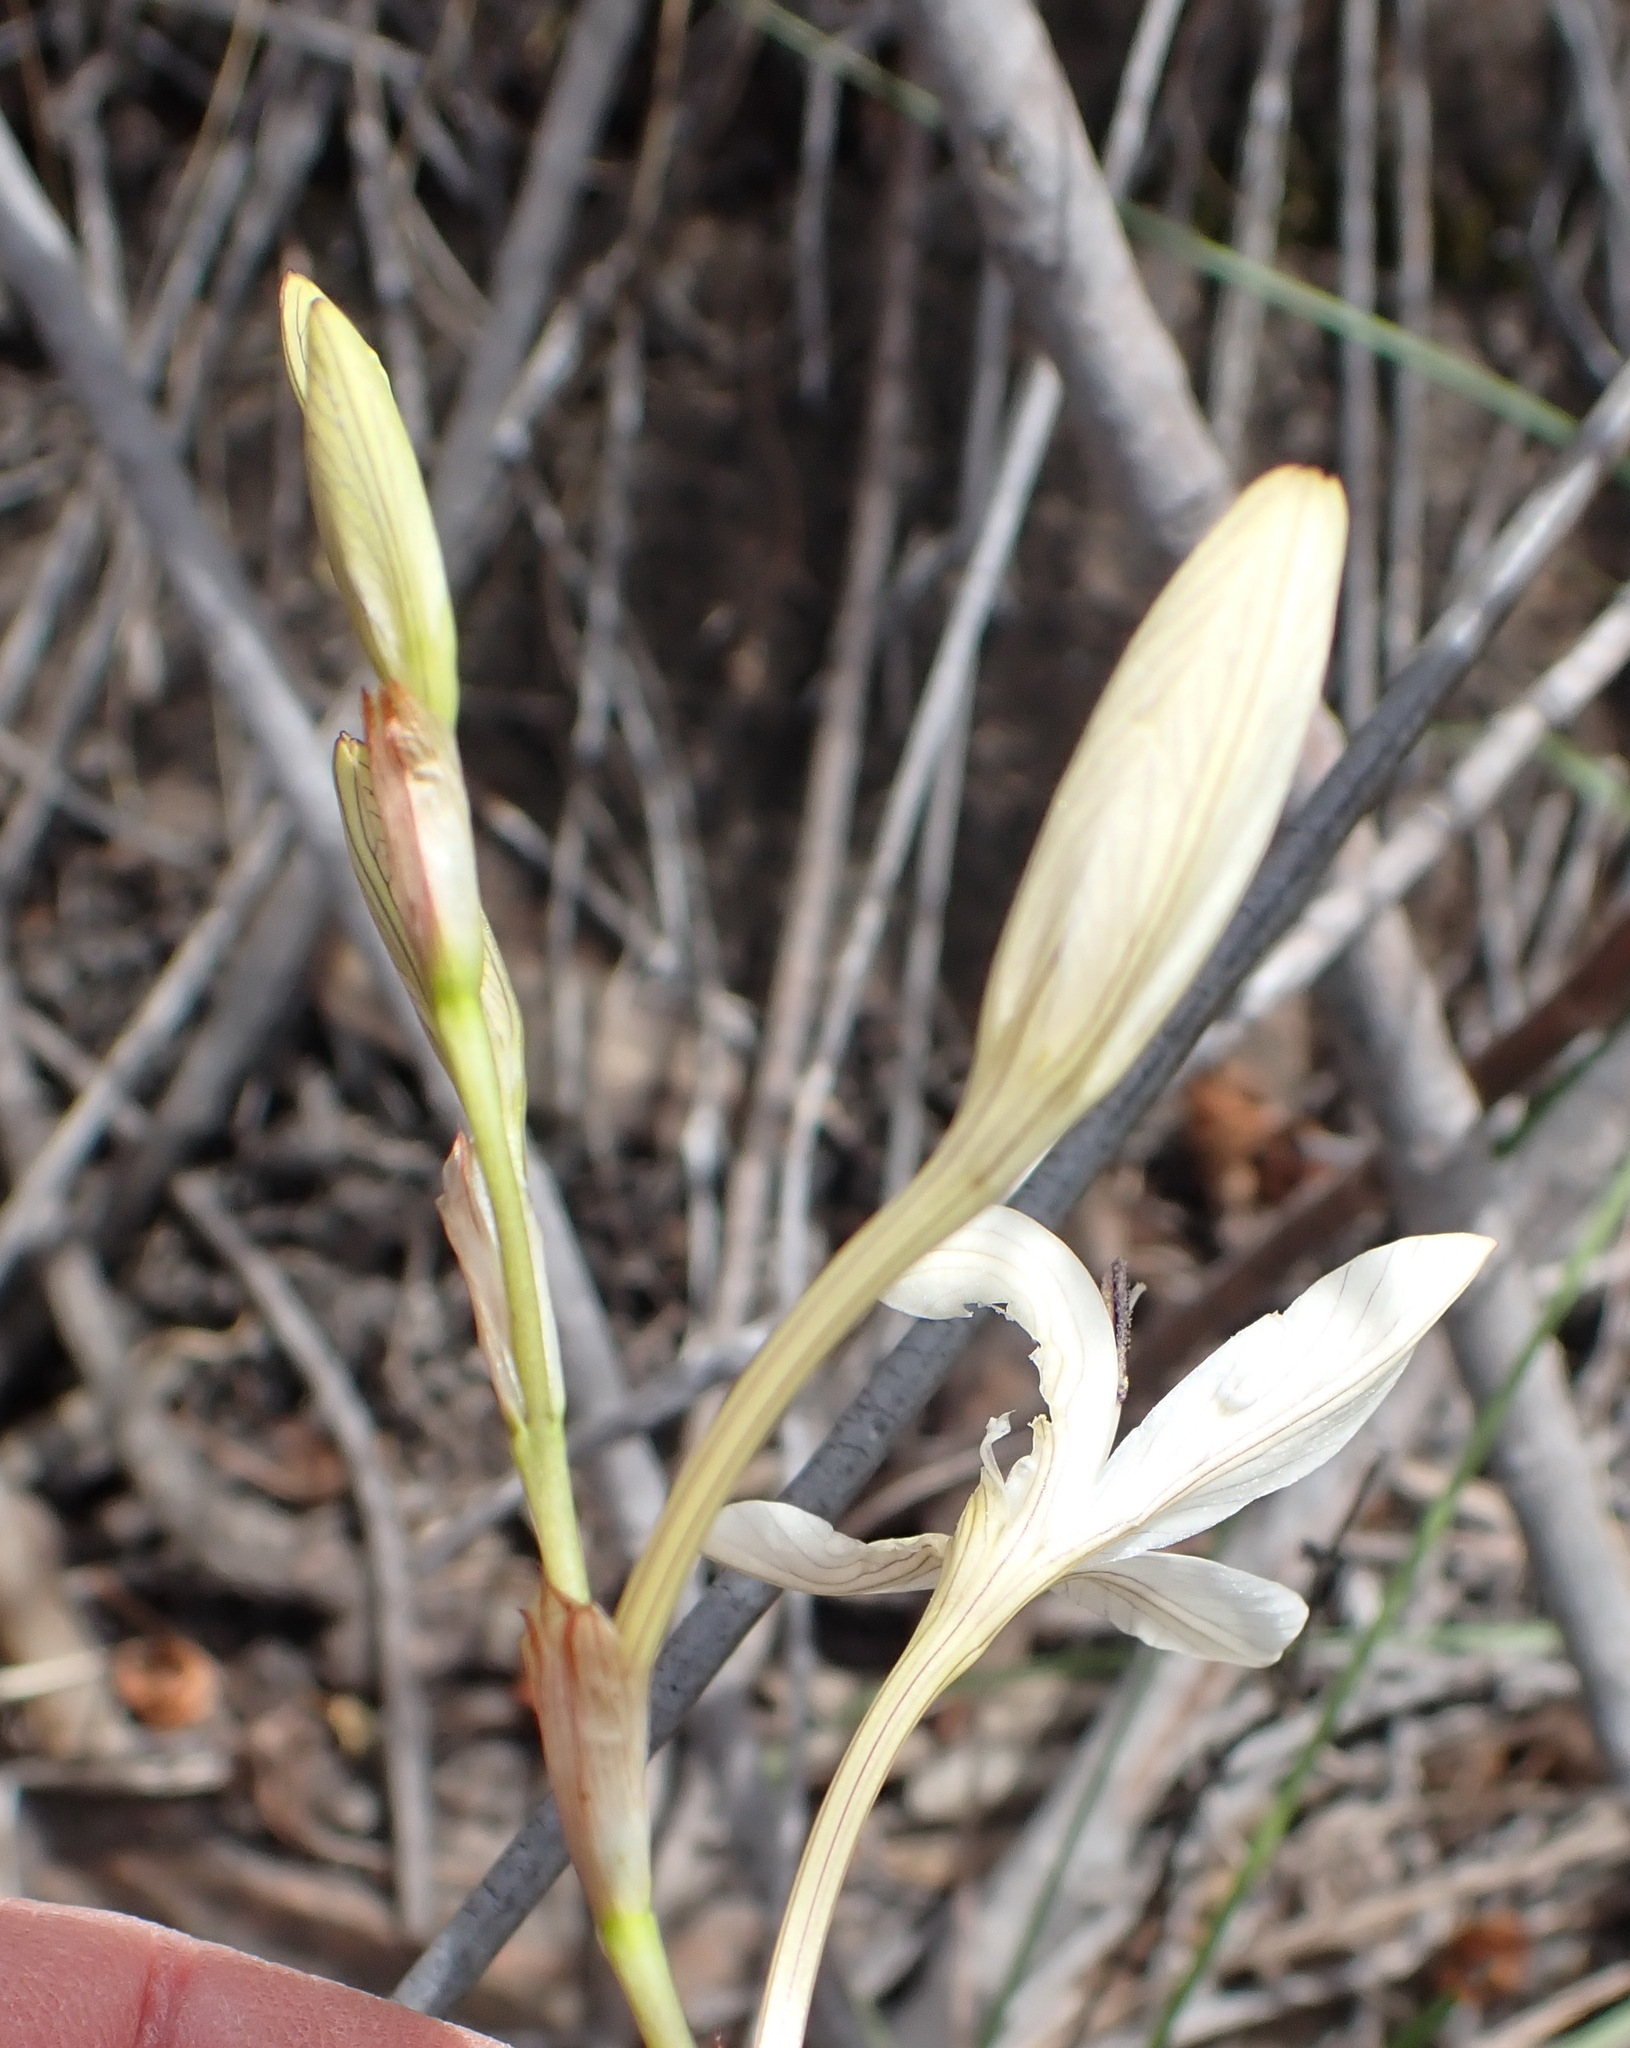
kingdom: Plantae
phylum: Tracheophyta
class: Liliopsida
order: Asparagales
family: Iridaceae
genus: Tritonia
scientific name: Tritonia bakeri
